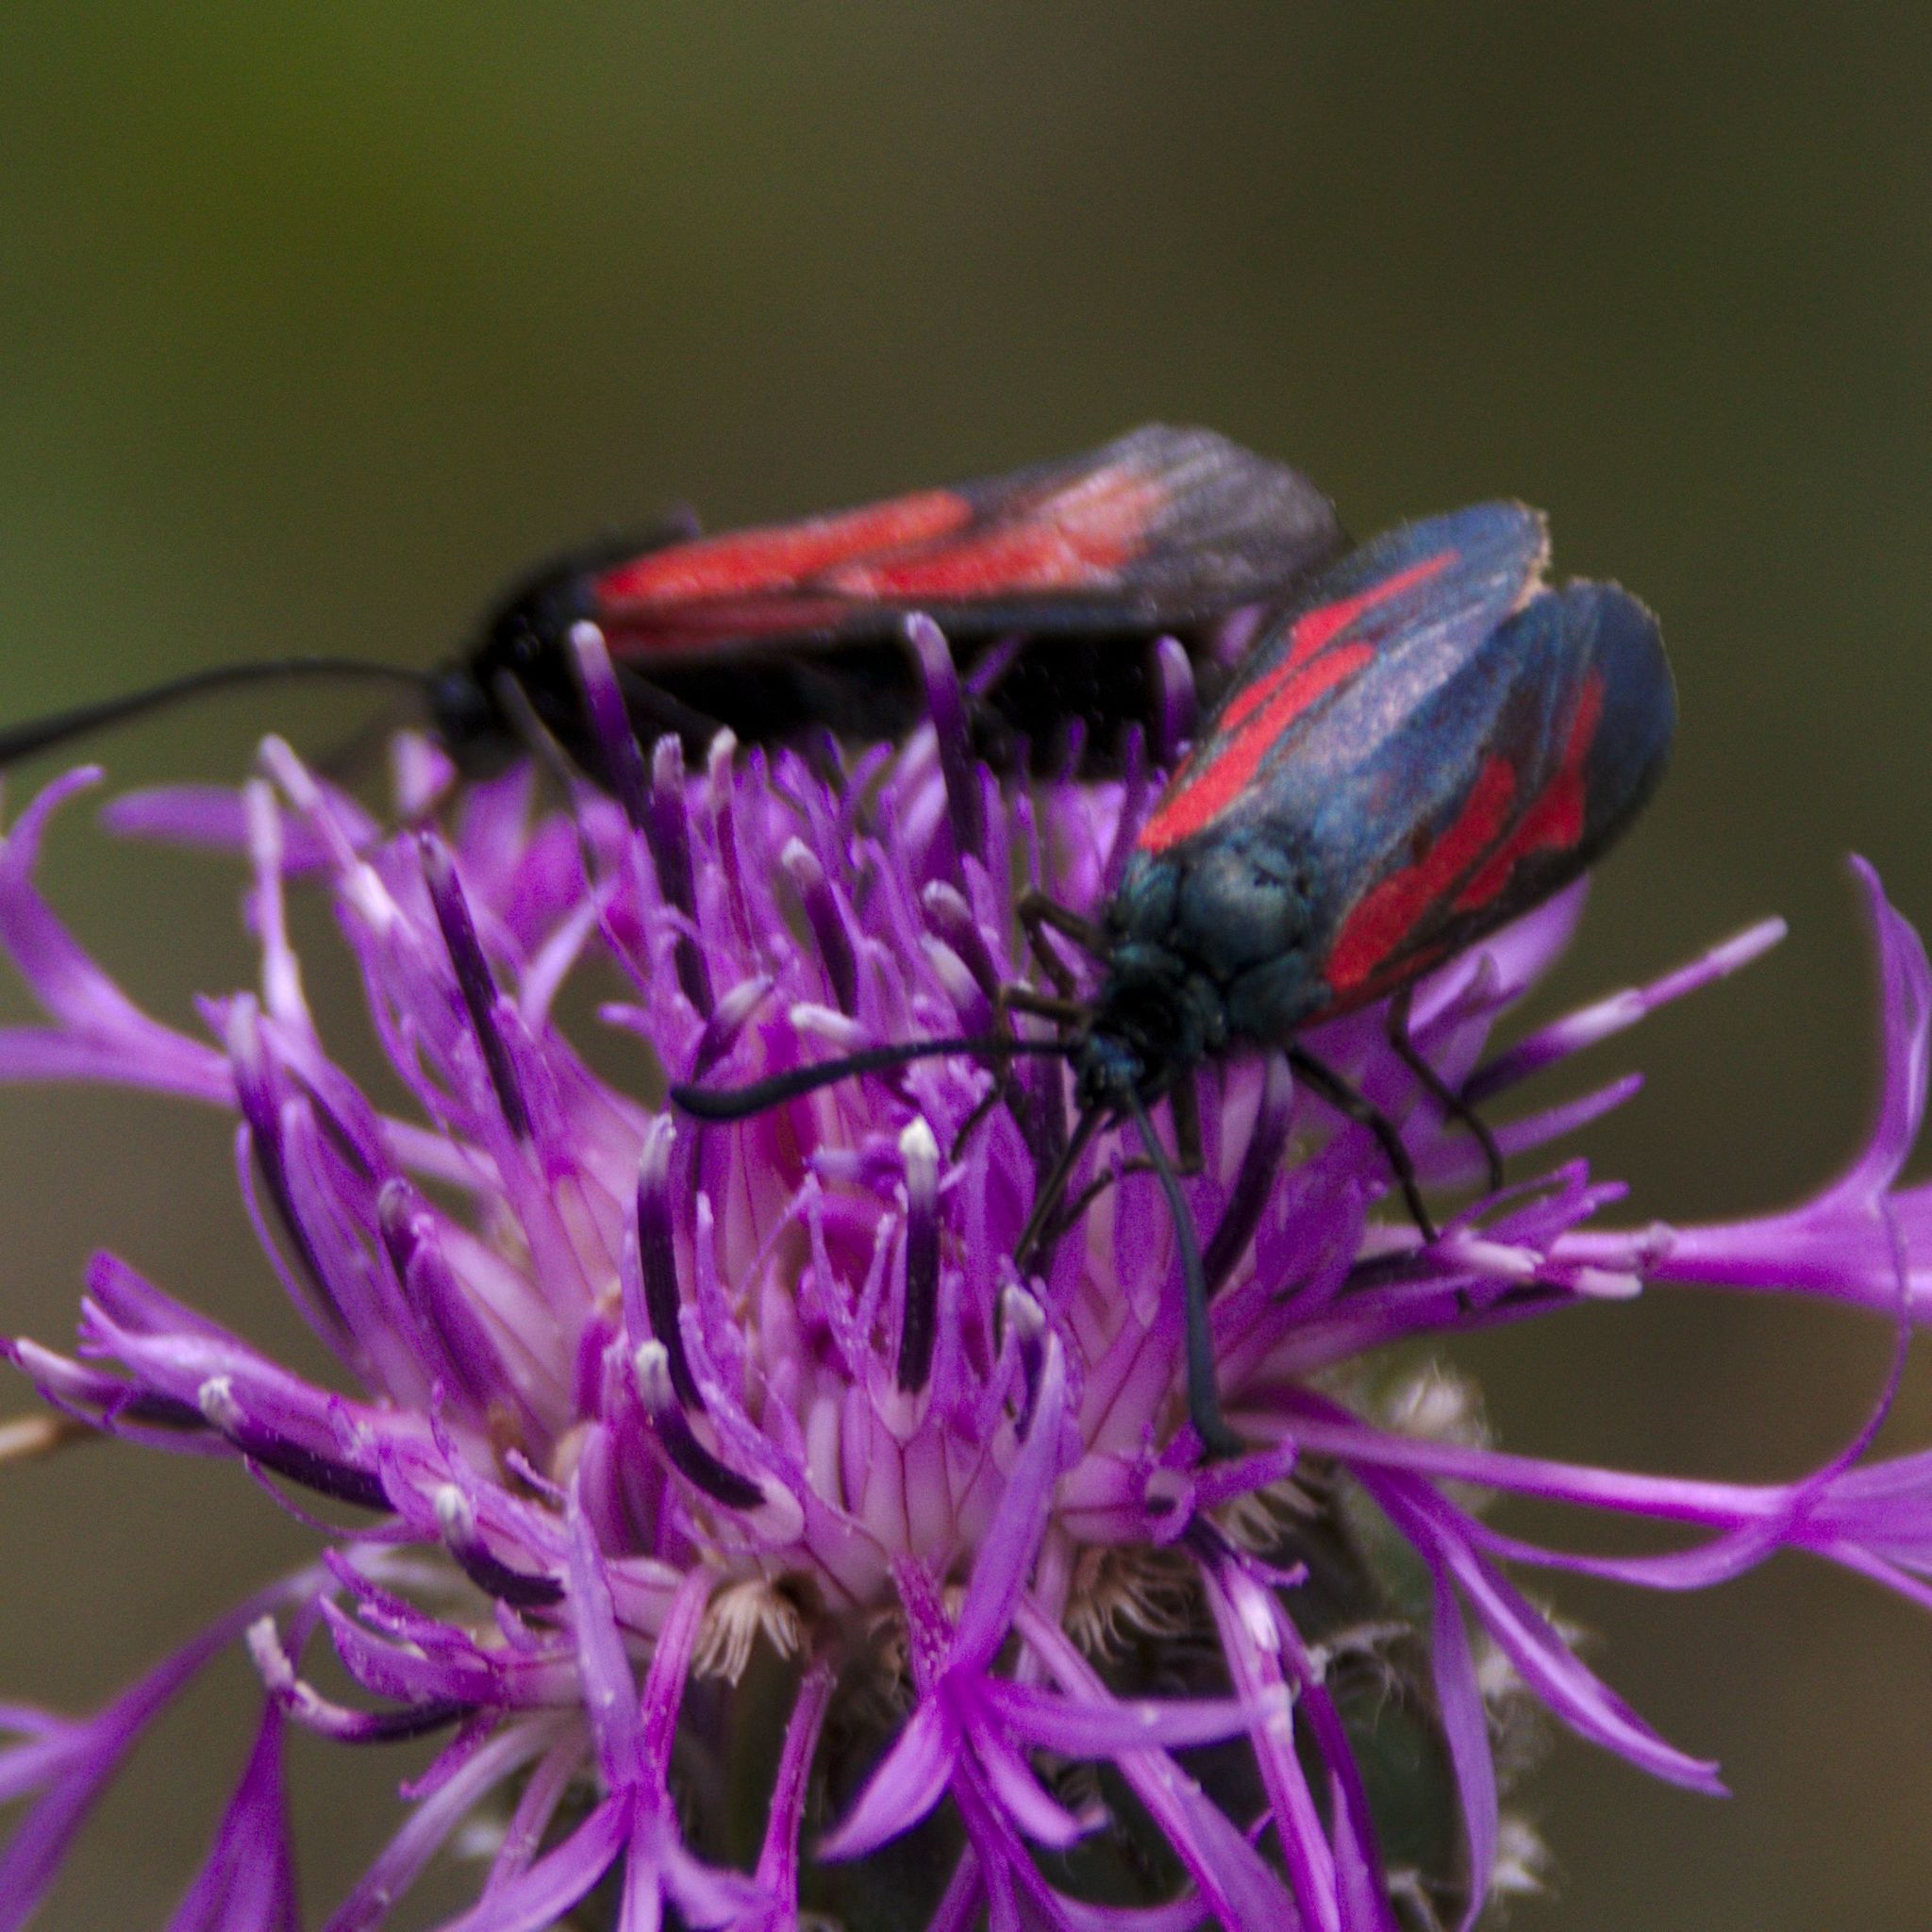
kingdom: Animalia
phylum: Arthropoda
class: Insecta
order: Lepidoptera
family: Zygaenidae
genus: Zygaena
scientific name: Zygaena
